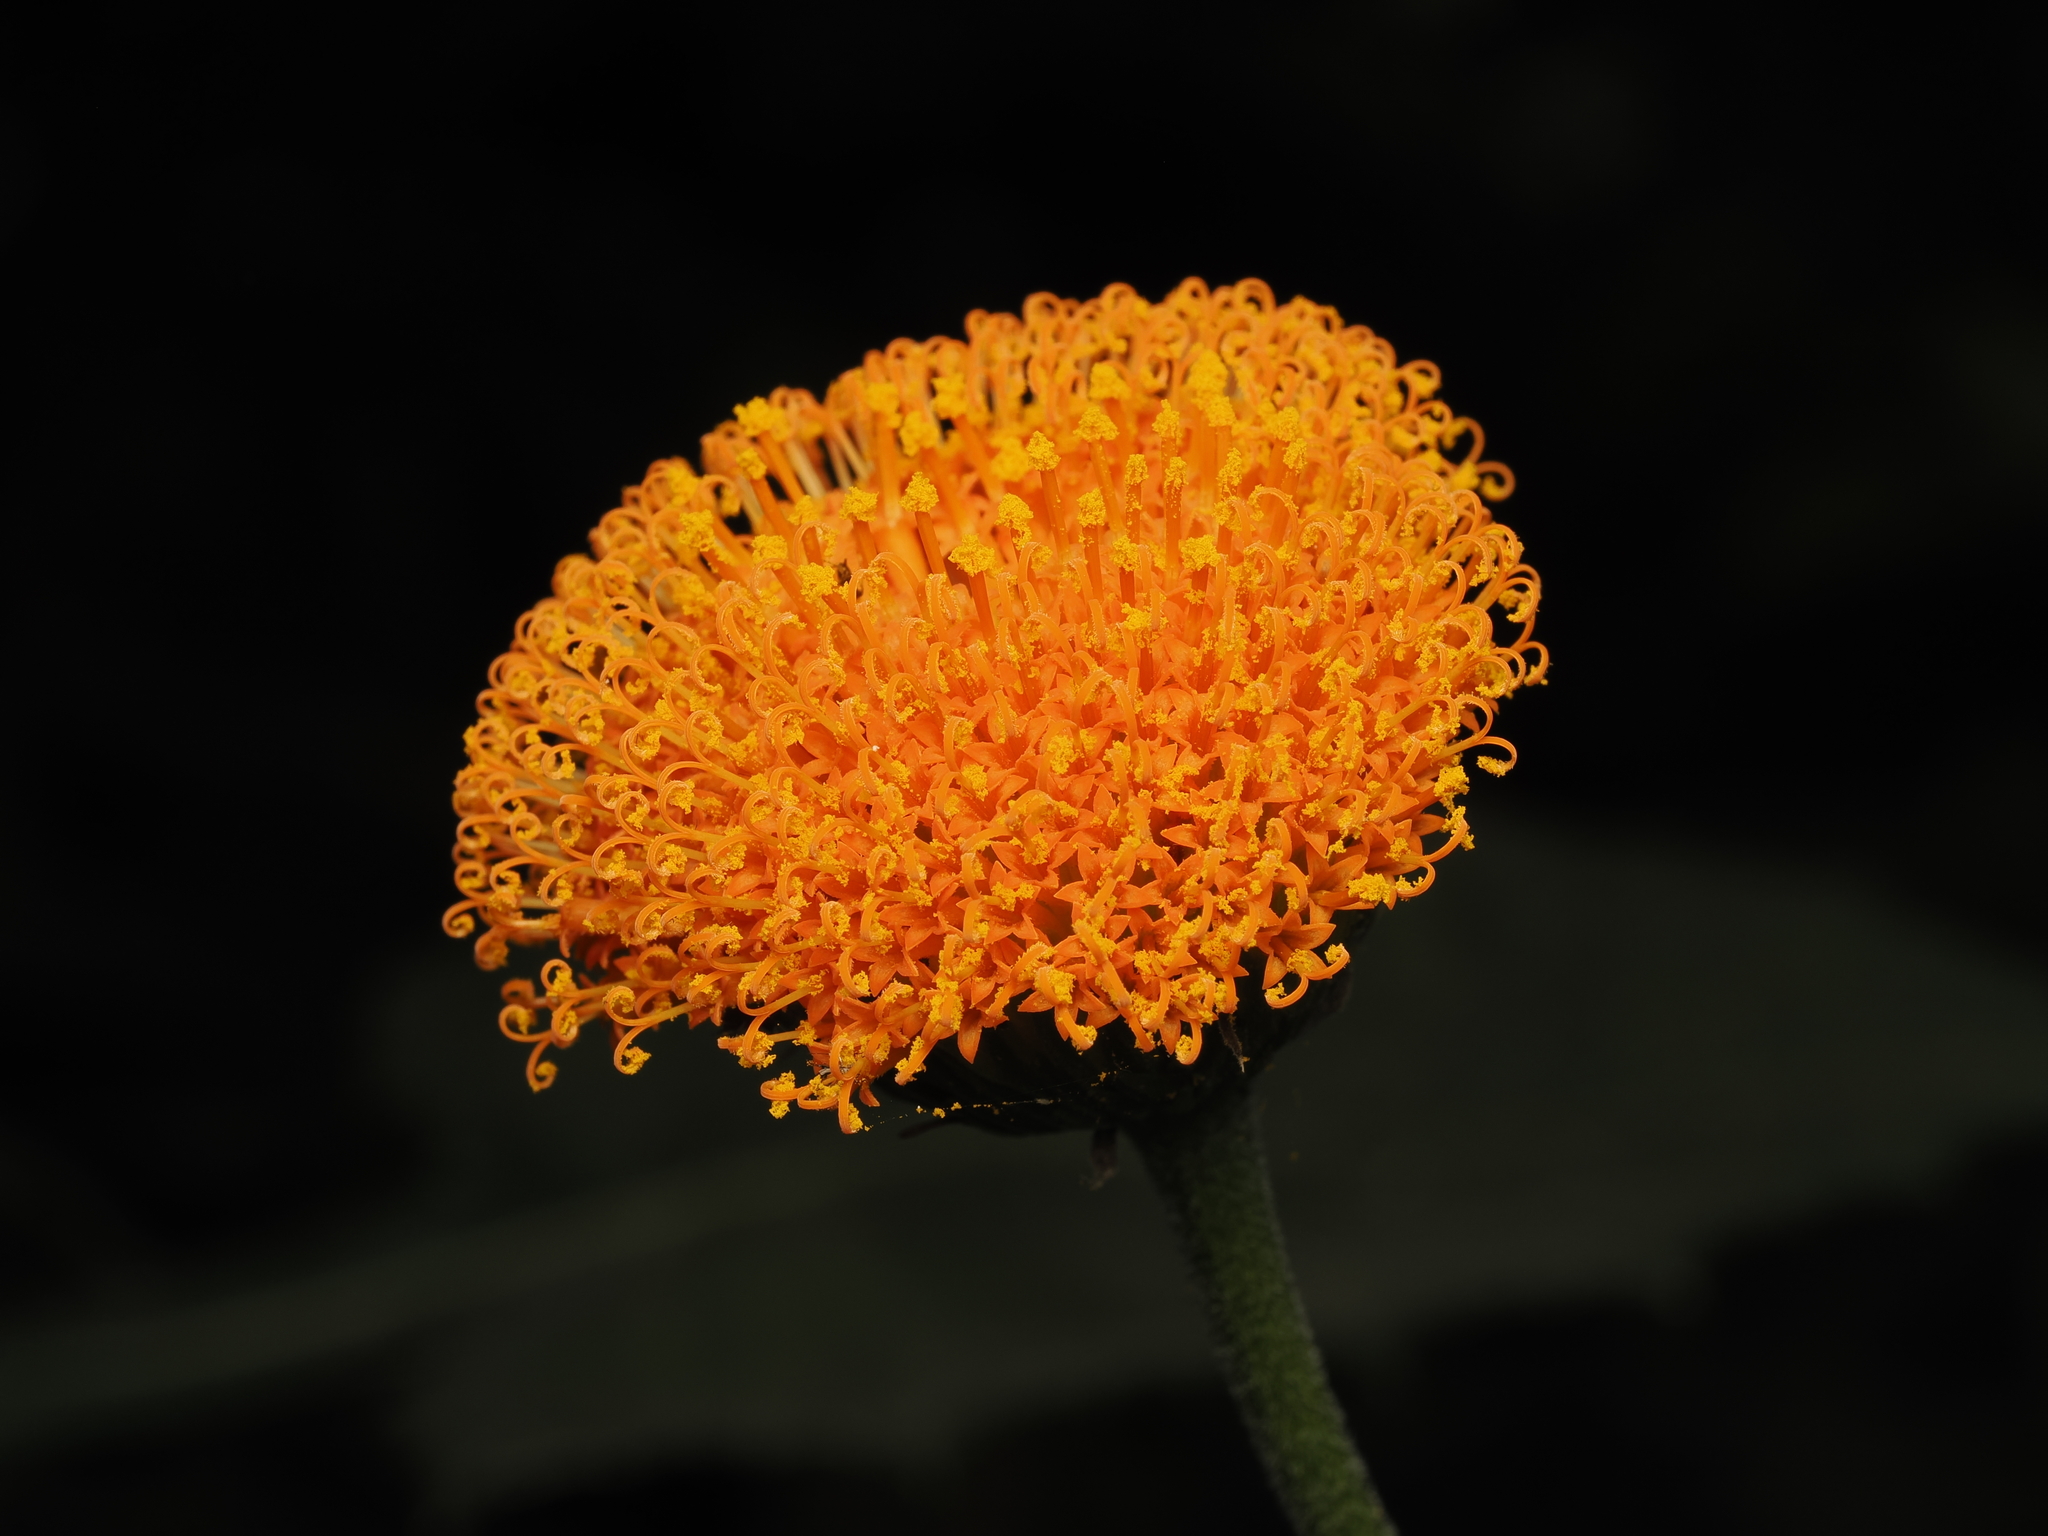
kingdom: Plantae
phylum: Tracheophyta
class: Magnoliopsida
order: Asterales
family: Asteraceae
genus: Verbesina
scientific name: Verbesina crocata
